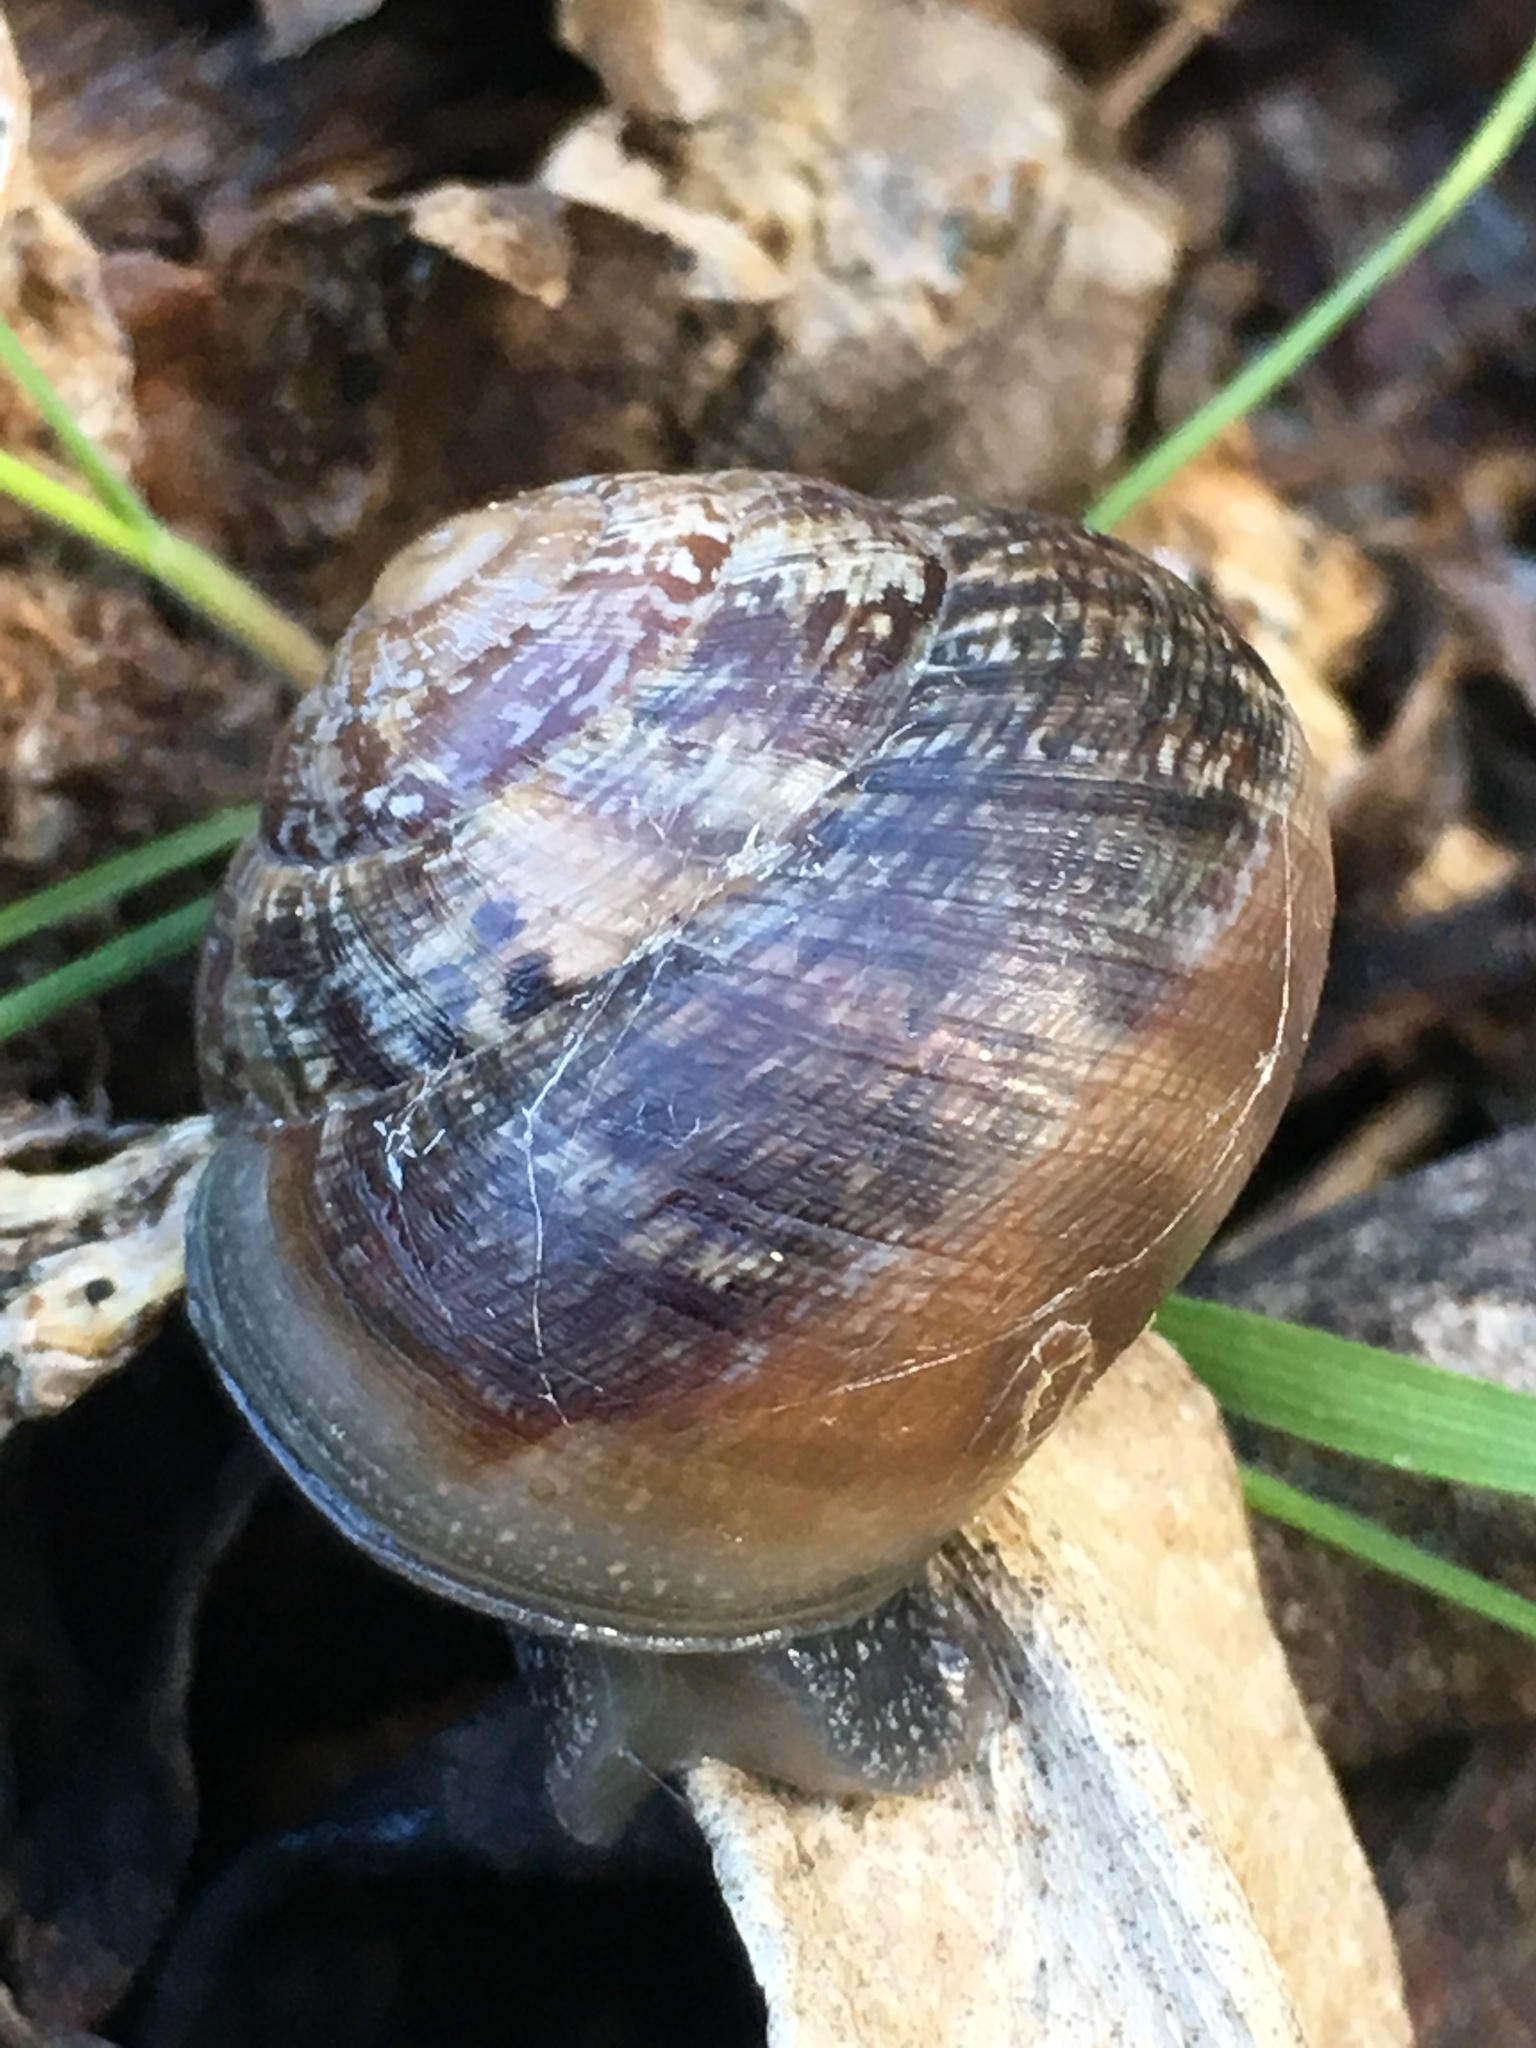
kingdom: Animalia
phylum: Mollusca
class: Gastropoda
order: Stylommatophora
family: Xanthonychidae
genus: Xerarionta
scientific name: Xerarionta tryoni
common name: Bicolor cactus snail
